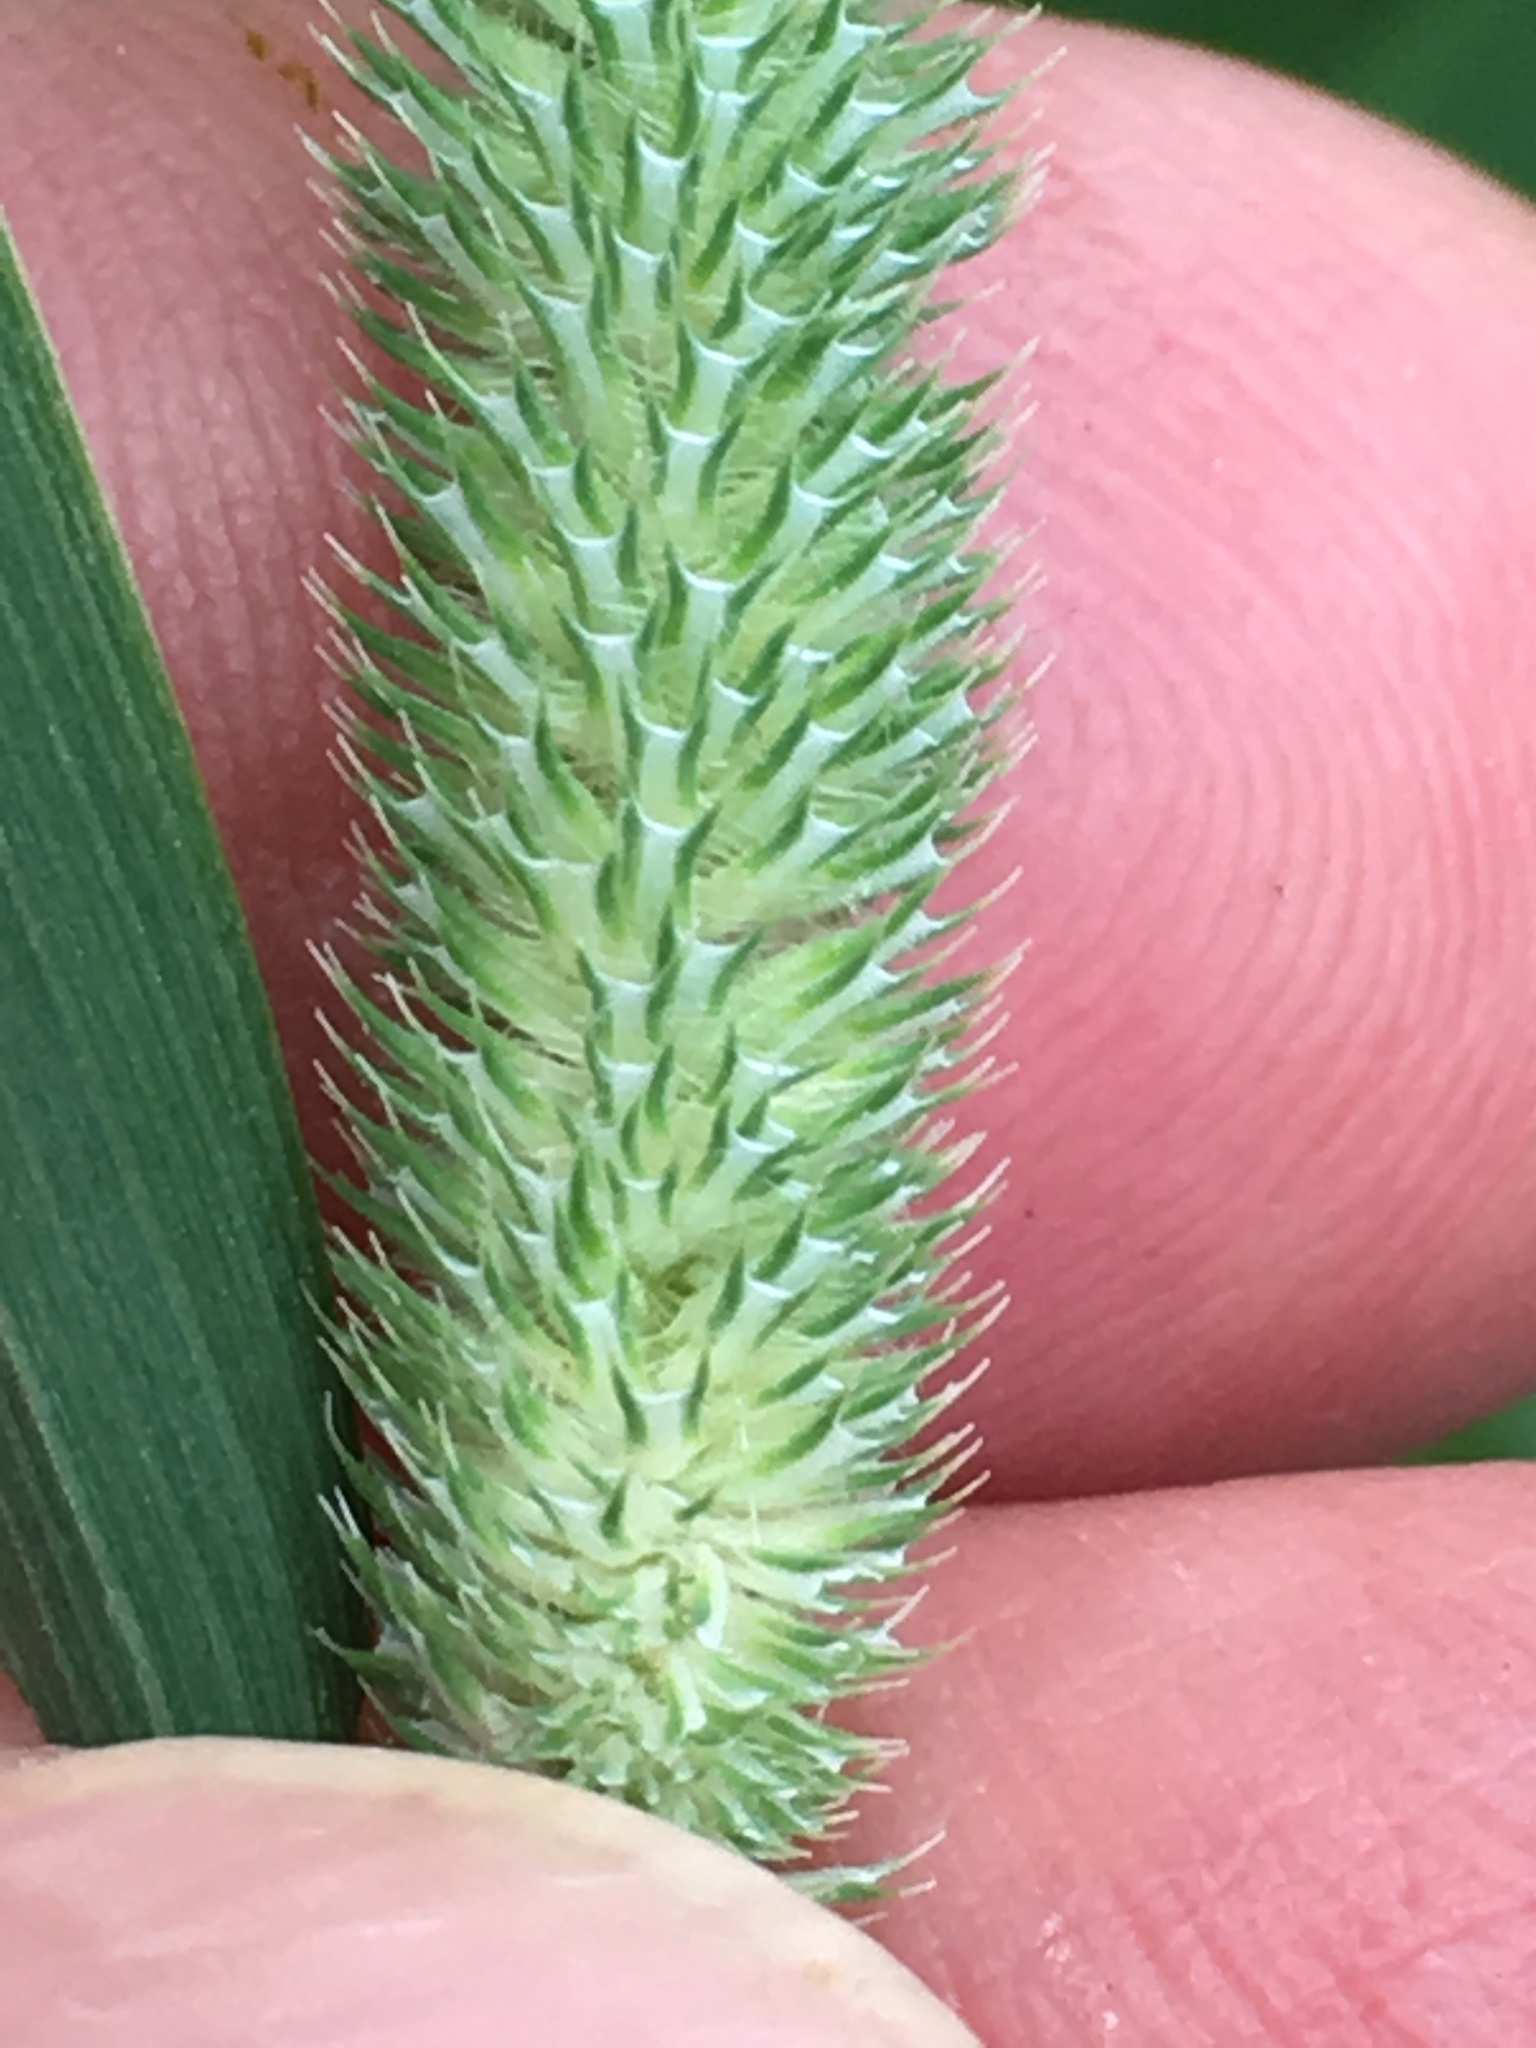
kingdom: Plantae
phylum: Tracheophyta
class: Liliopsida
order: Poales
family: Poaceae
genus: Phleum
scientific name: Phleum pratense
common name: Timothy grass
